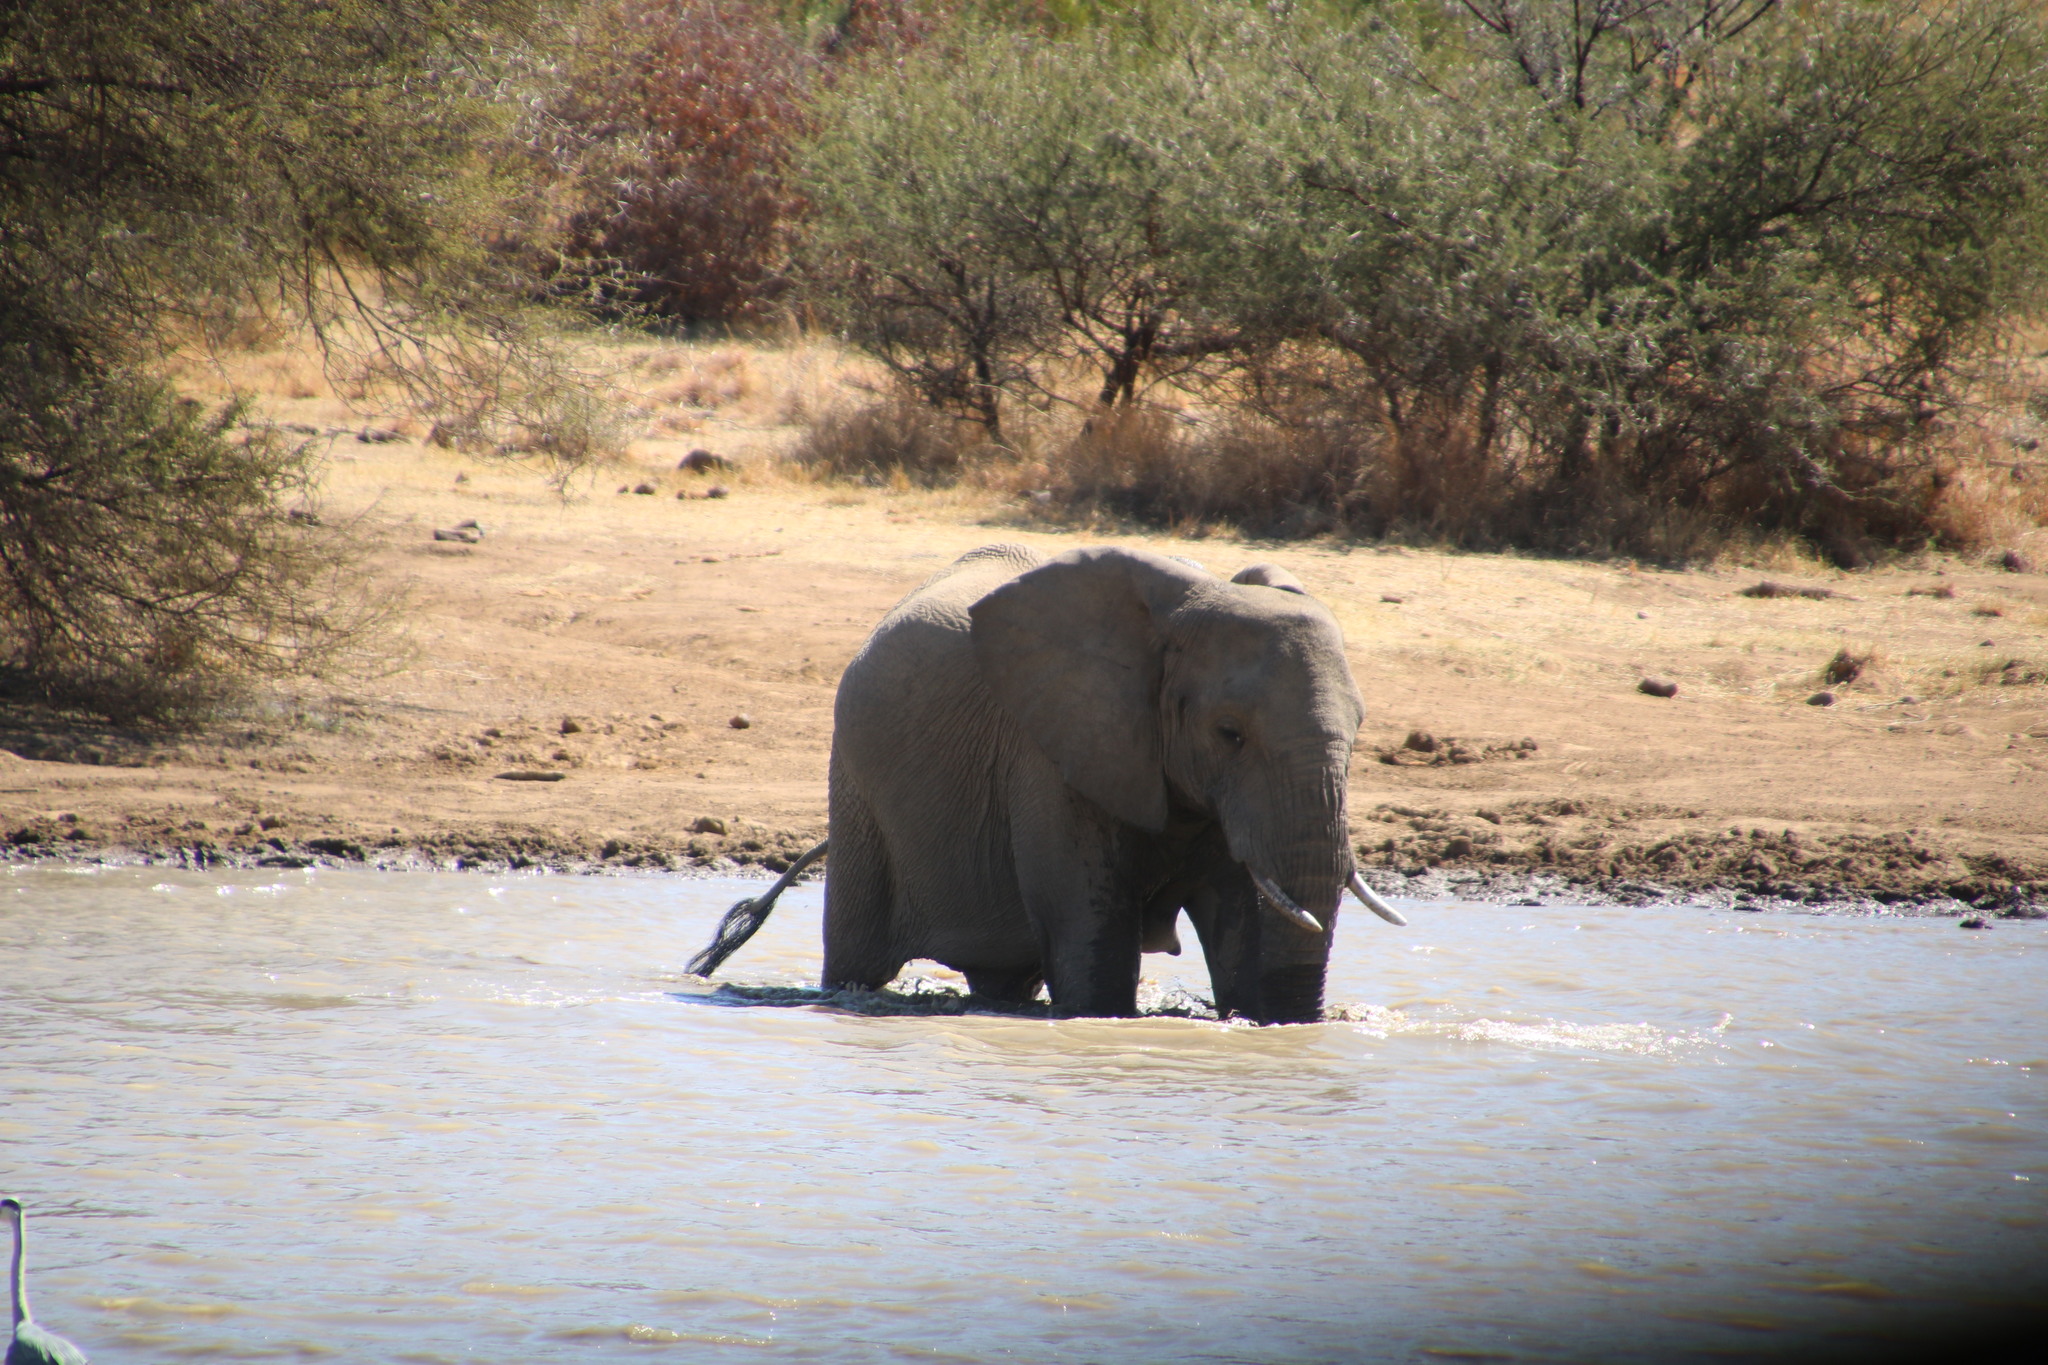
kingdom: Animalia
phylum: Chordata
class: Mammalia
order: Proboscidea
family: Elephantidae
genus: Loxodonta
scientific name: Loxodonta africana
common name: African elephant
